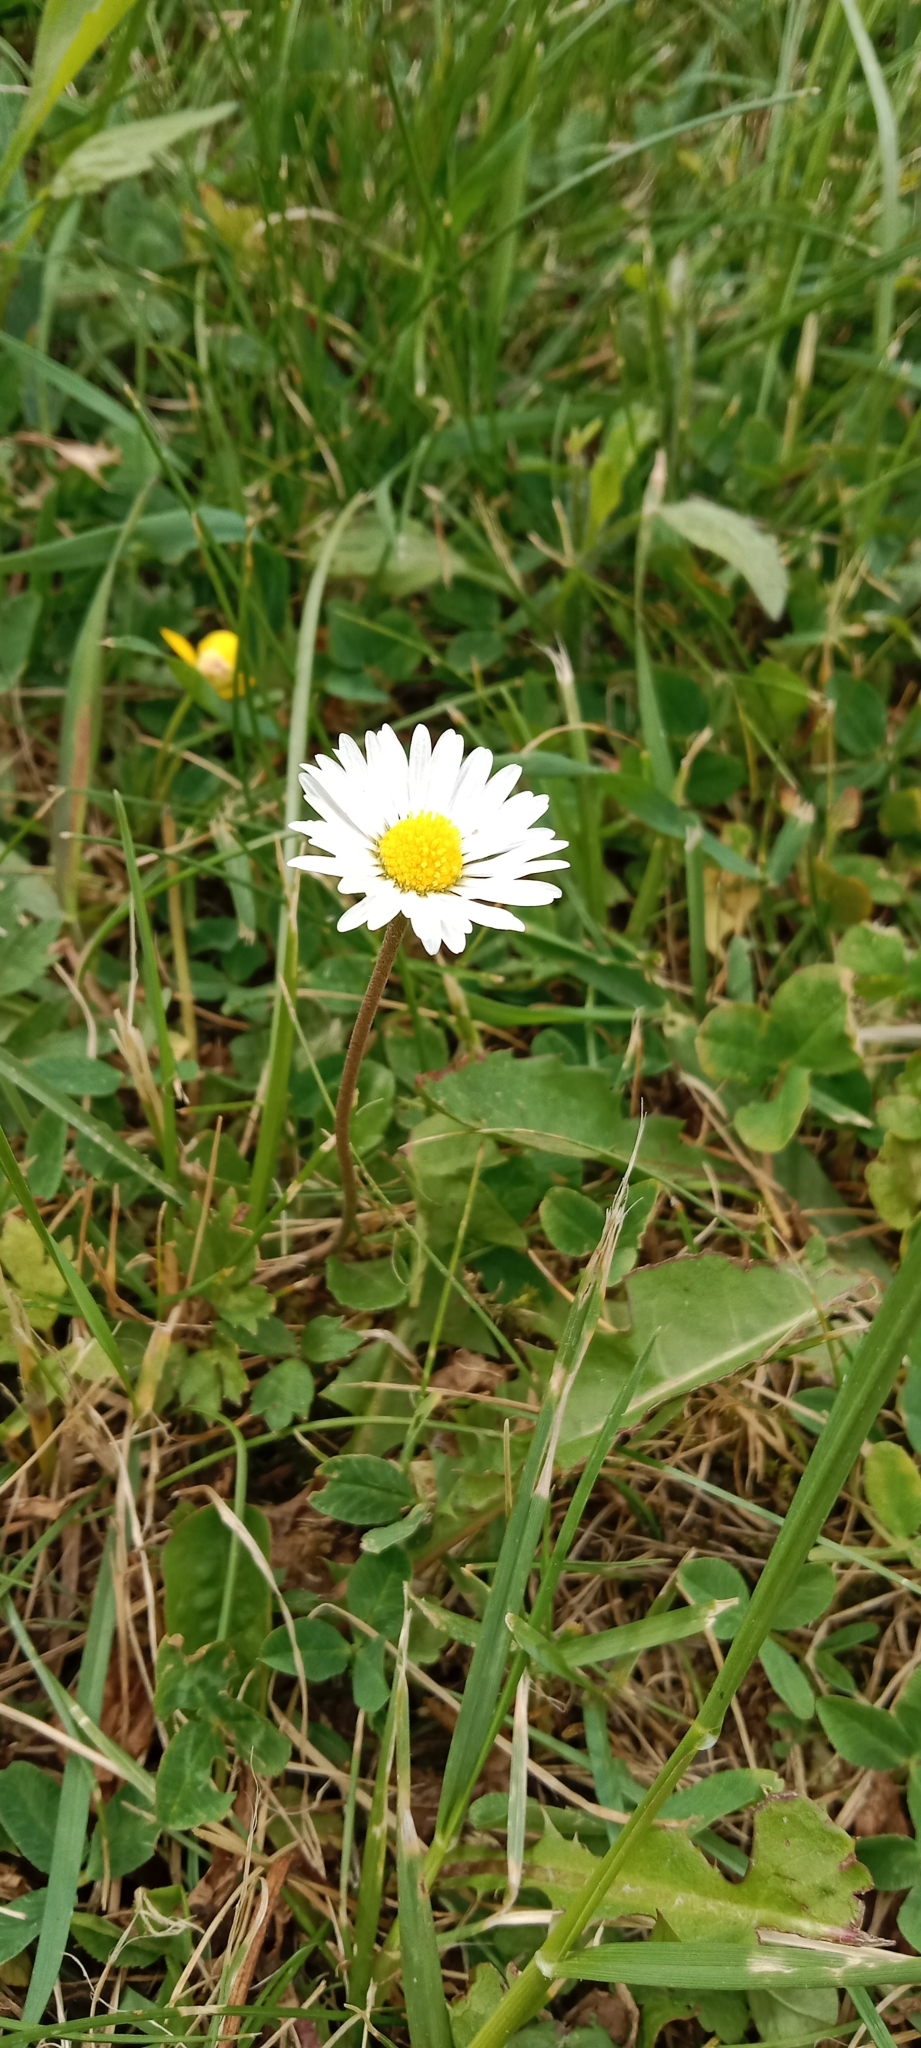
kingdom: Plantae
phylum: Tracheophyta
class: Magnoliopsida
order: Asterales
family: Asteraceae
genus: Bellis
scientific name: Bellis perennis
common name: Lawndaisy
